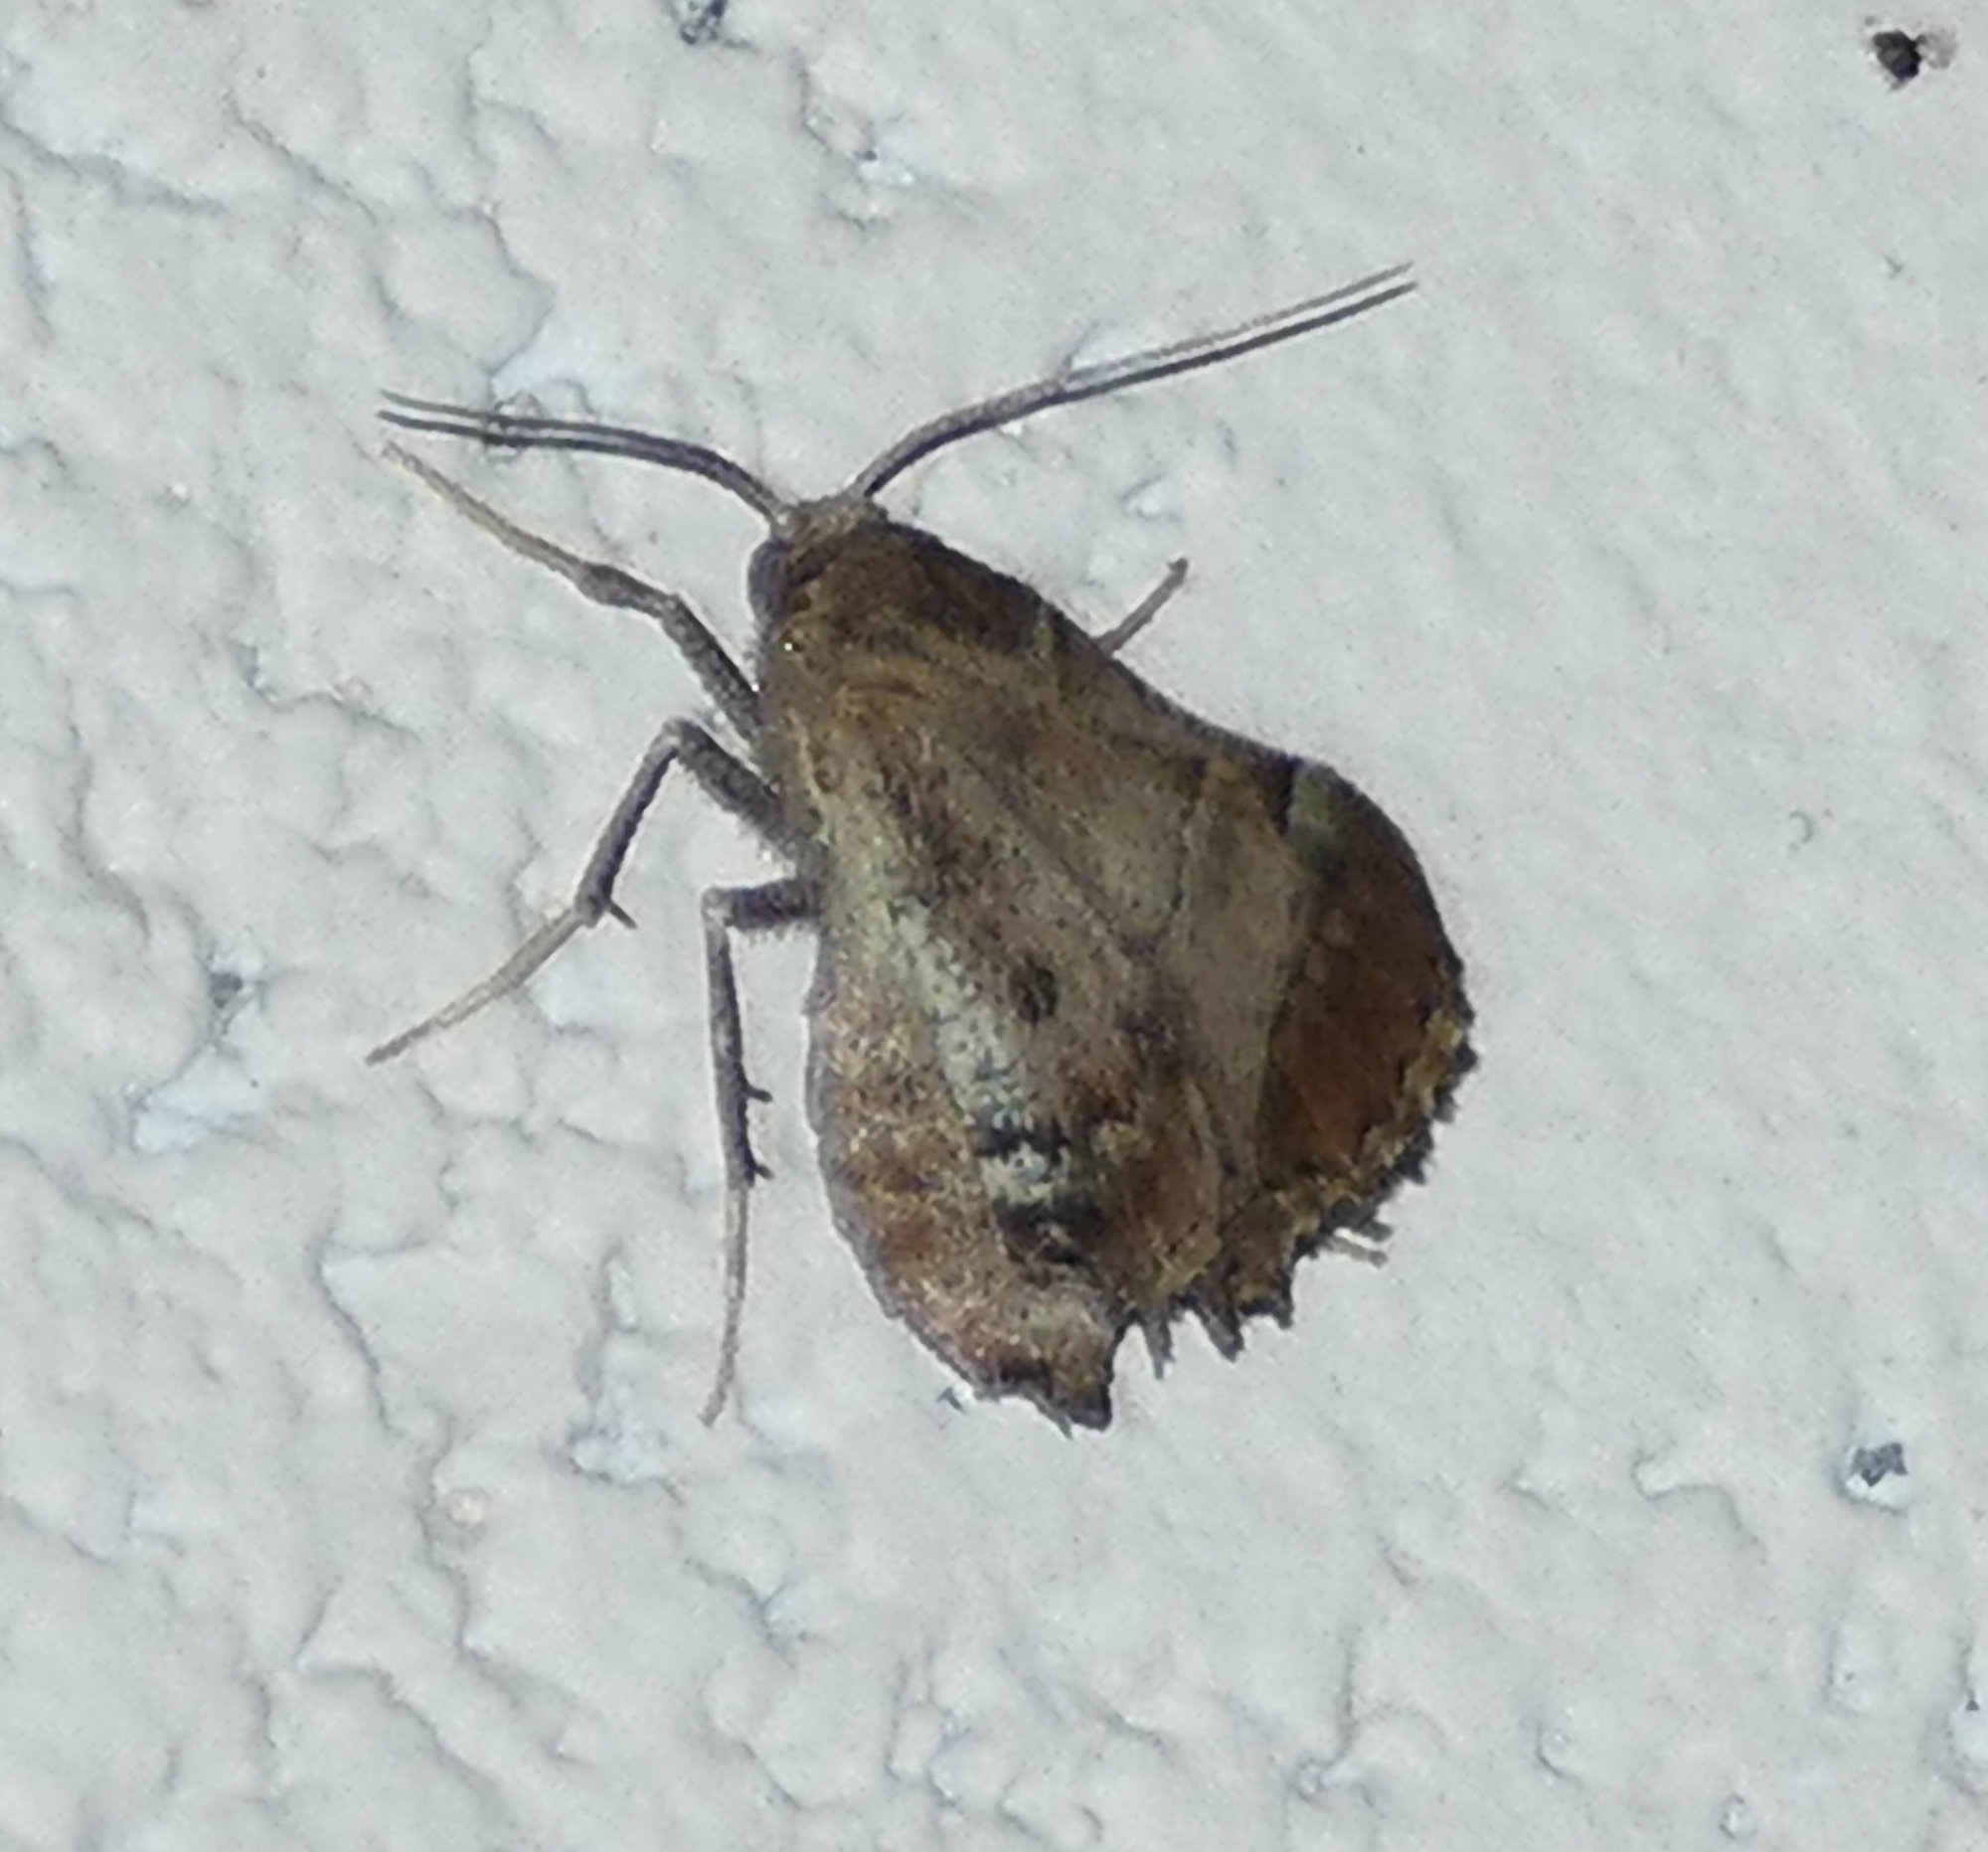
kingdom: Animalia
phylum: Arthropoda
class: Insecta
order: Lepidoptera
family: Geometridae
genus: Pero
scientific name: Pero meskaria
